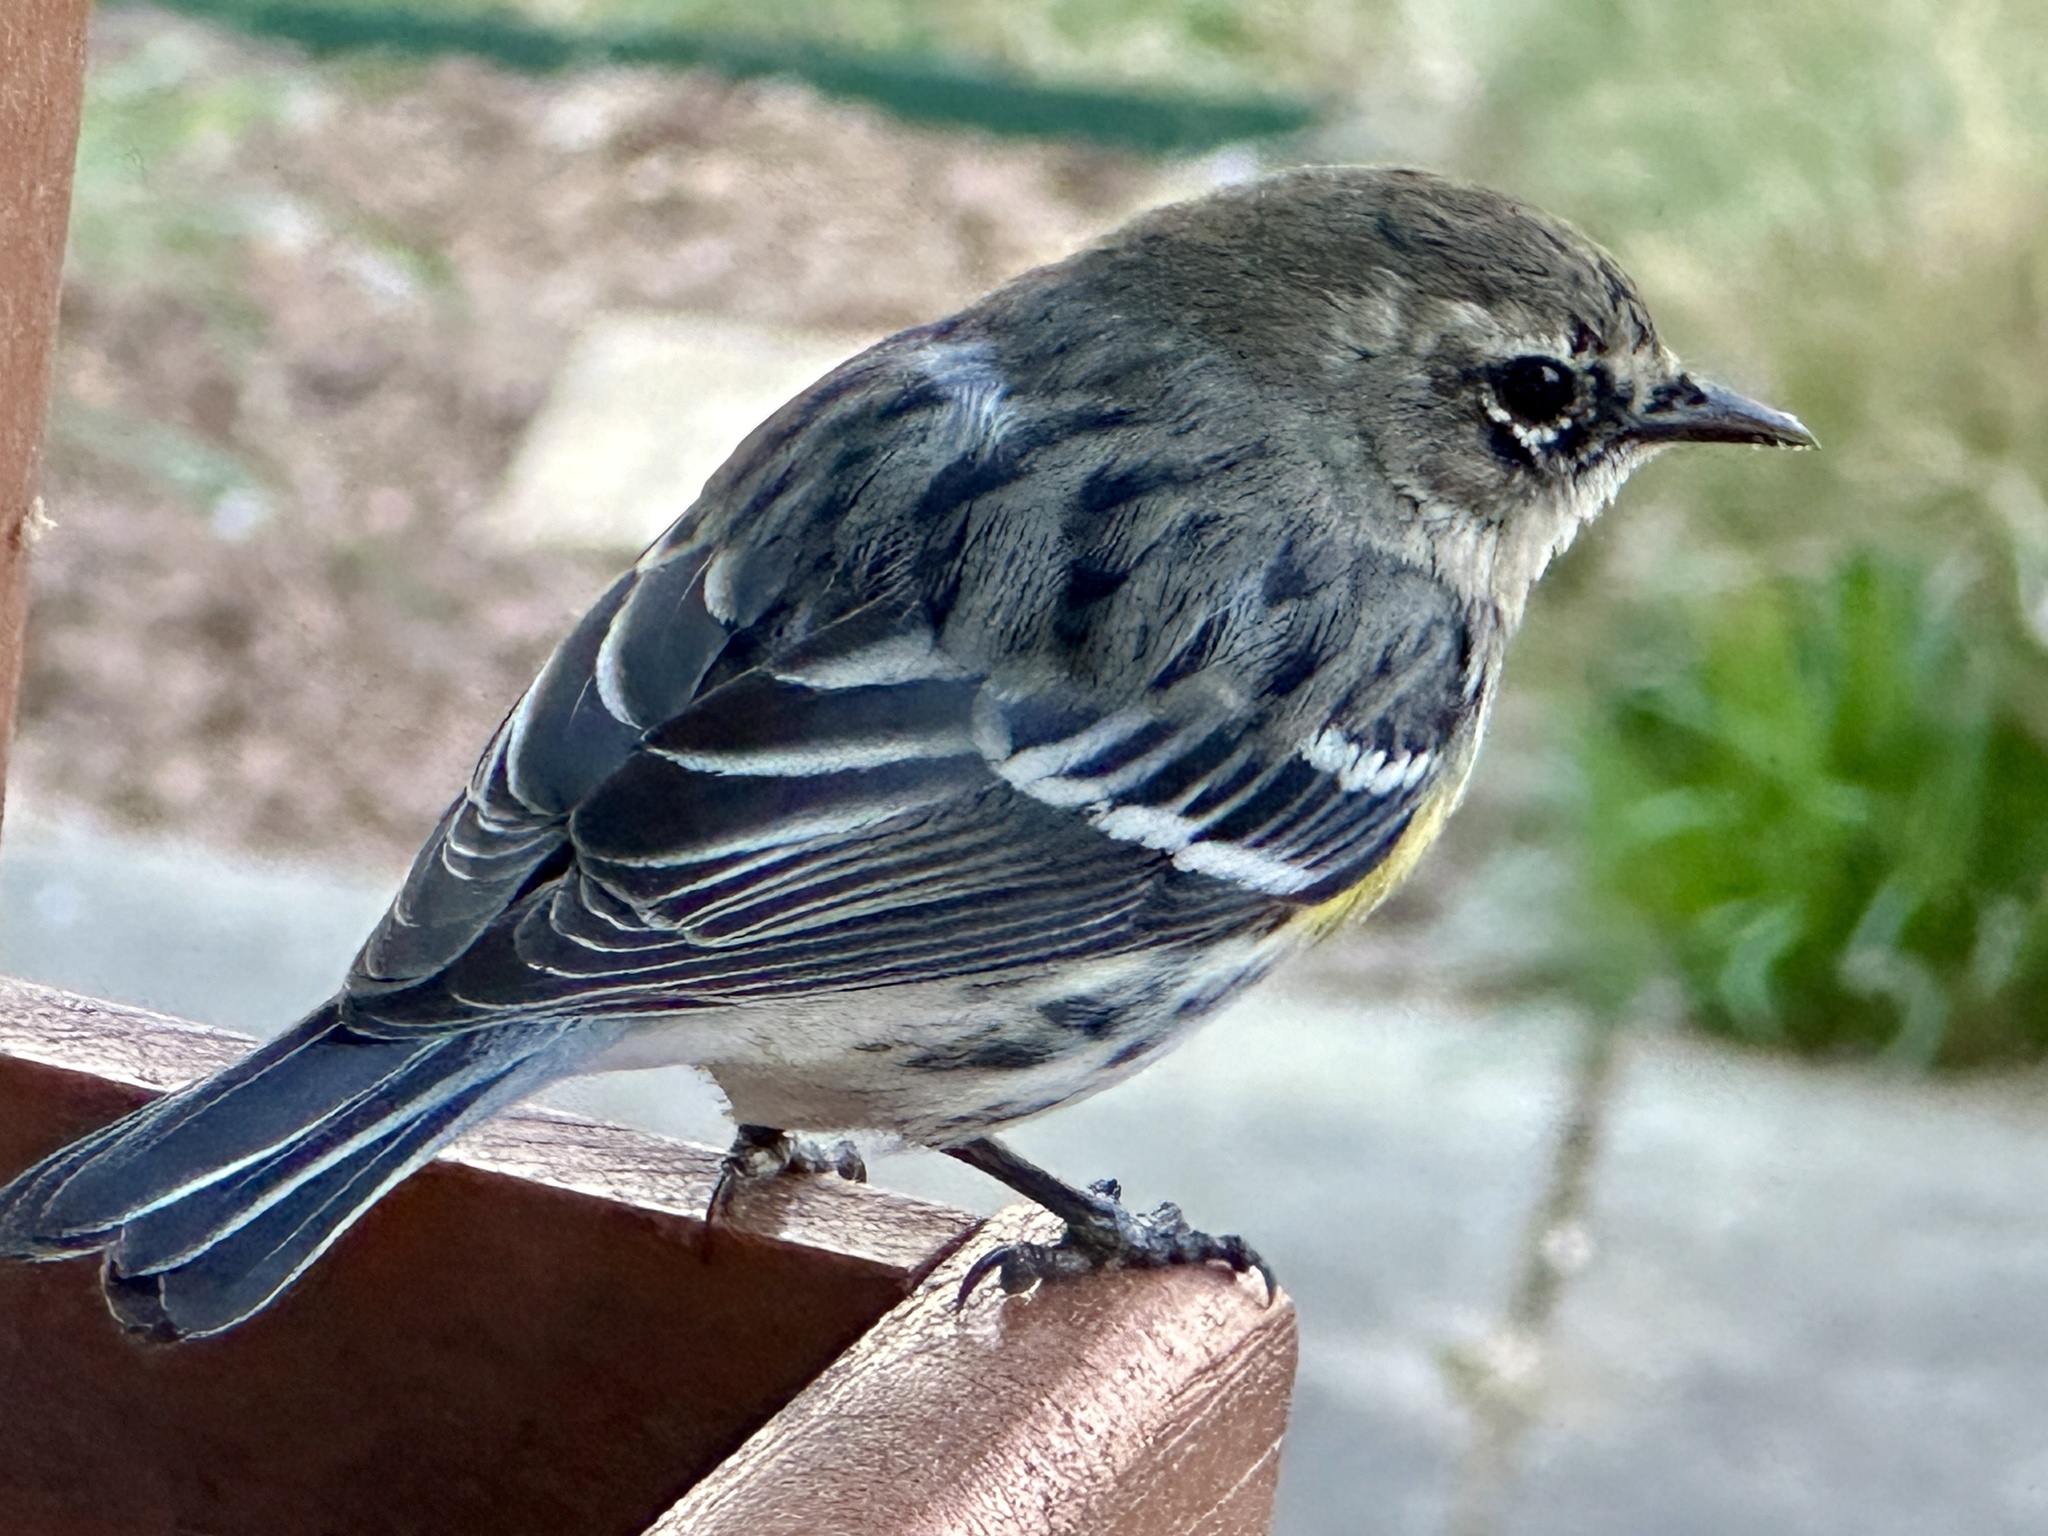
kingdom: Animalia
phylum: Chordata
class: Aves
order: Passeriformes
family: Parulidae
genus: Setophaga
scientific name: Setophaga coronata
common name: Myrtle warbler
